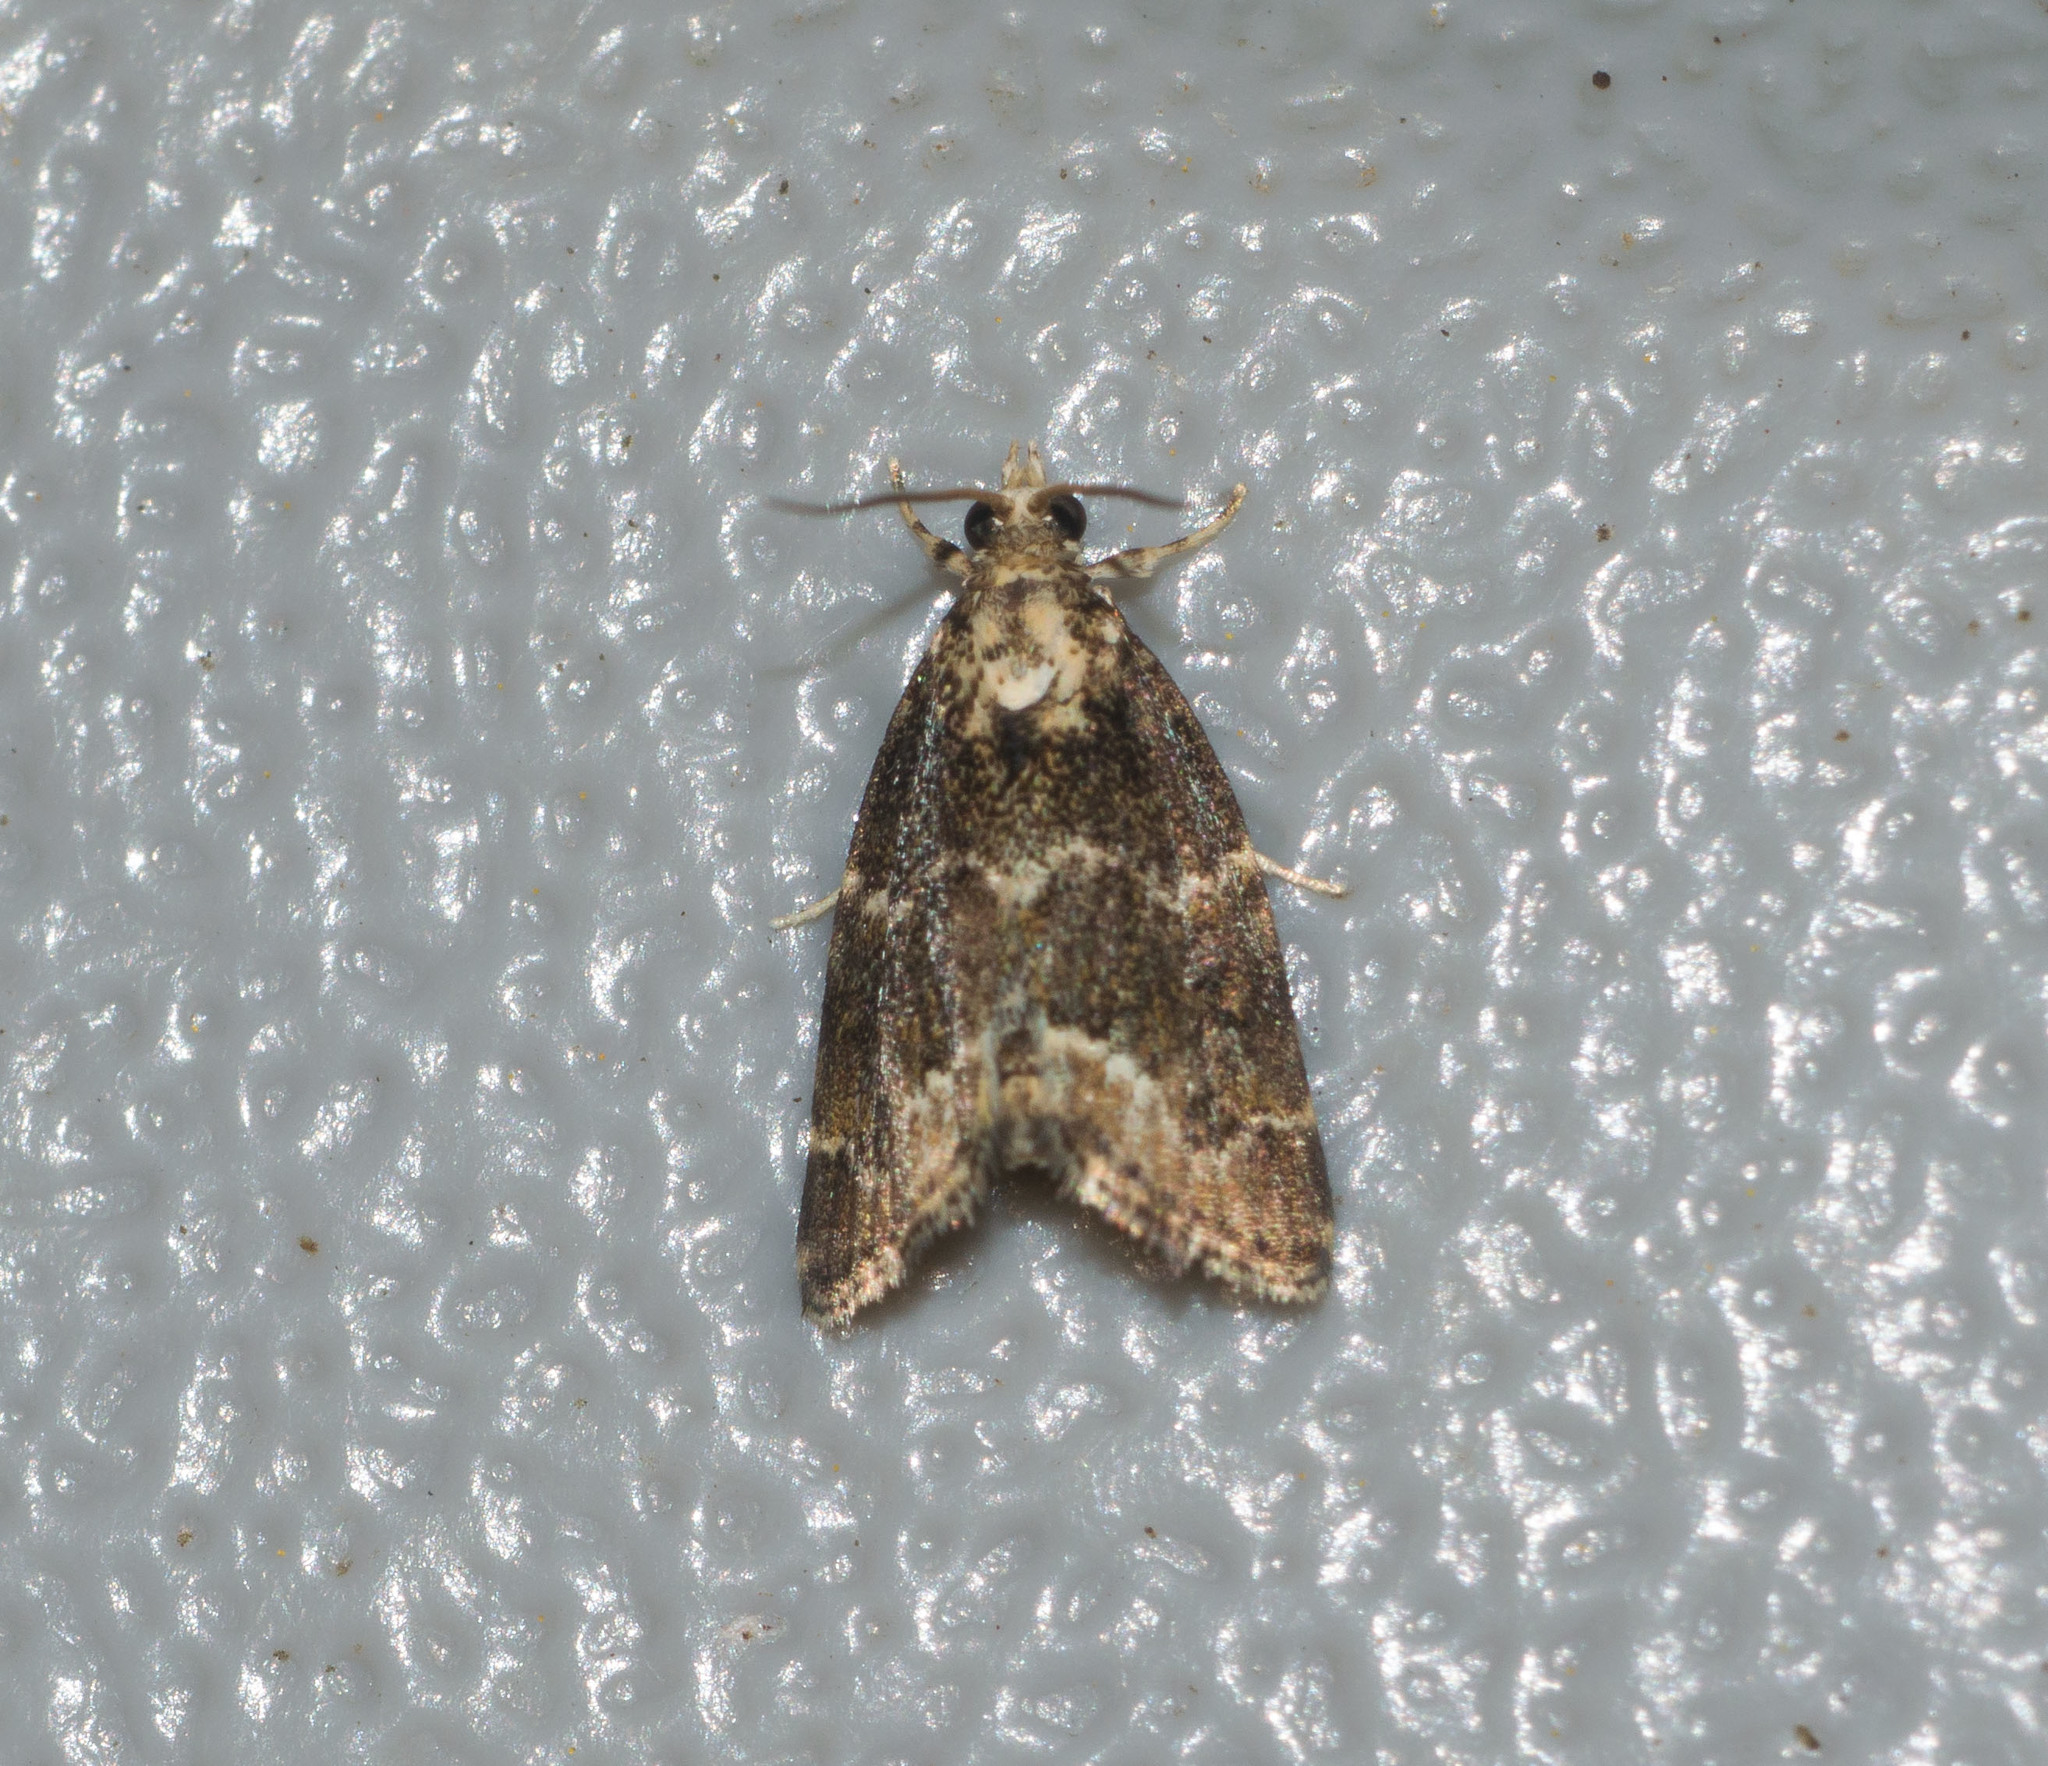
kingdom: Animalia
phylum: Arthropoda
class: Insecta
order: Lepidoptera
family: Crambidae
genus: Mestolobes
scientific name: Mestolobes abnormis
